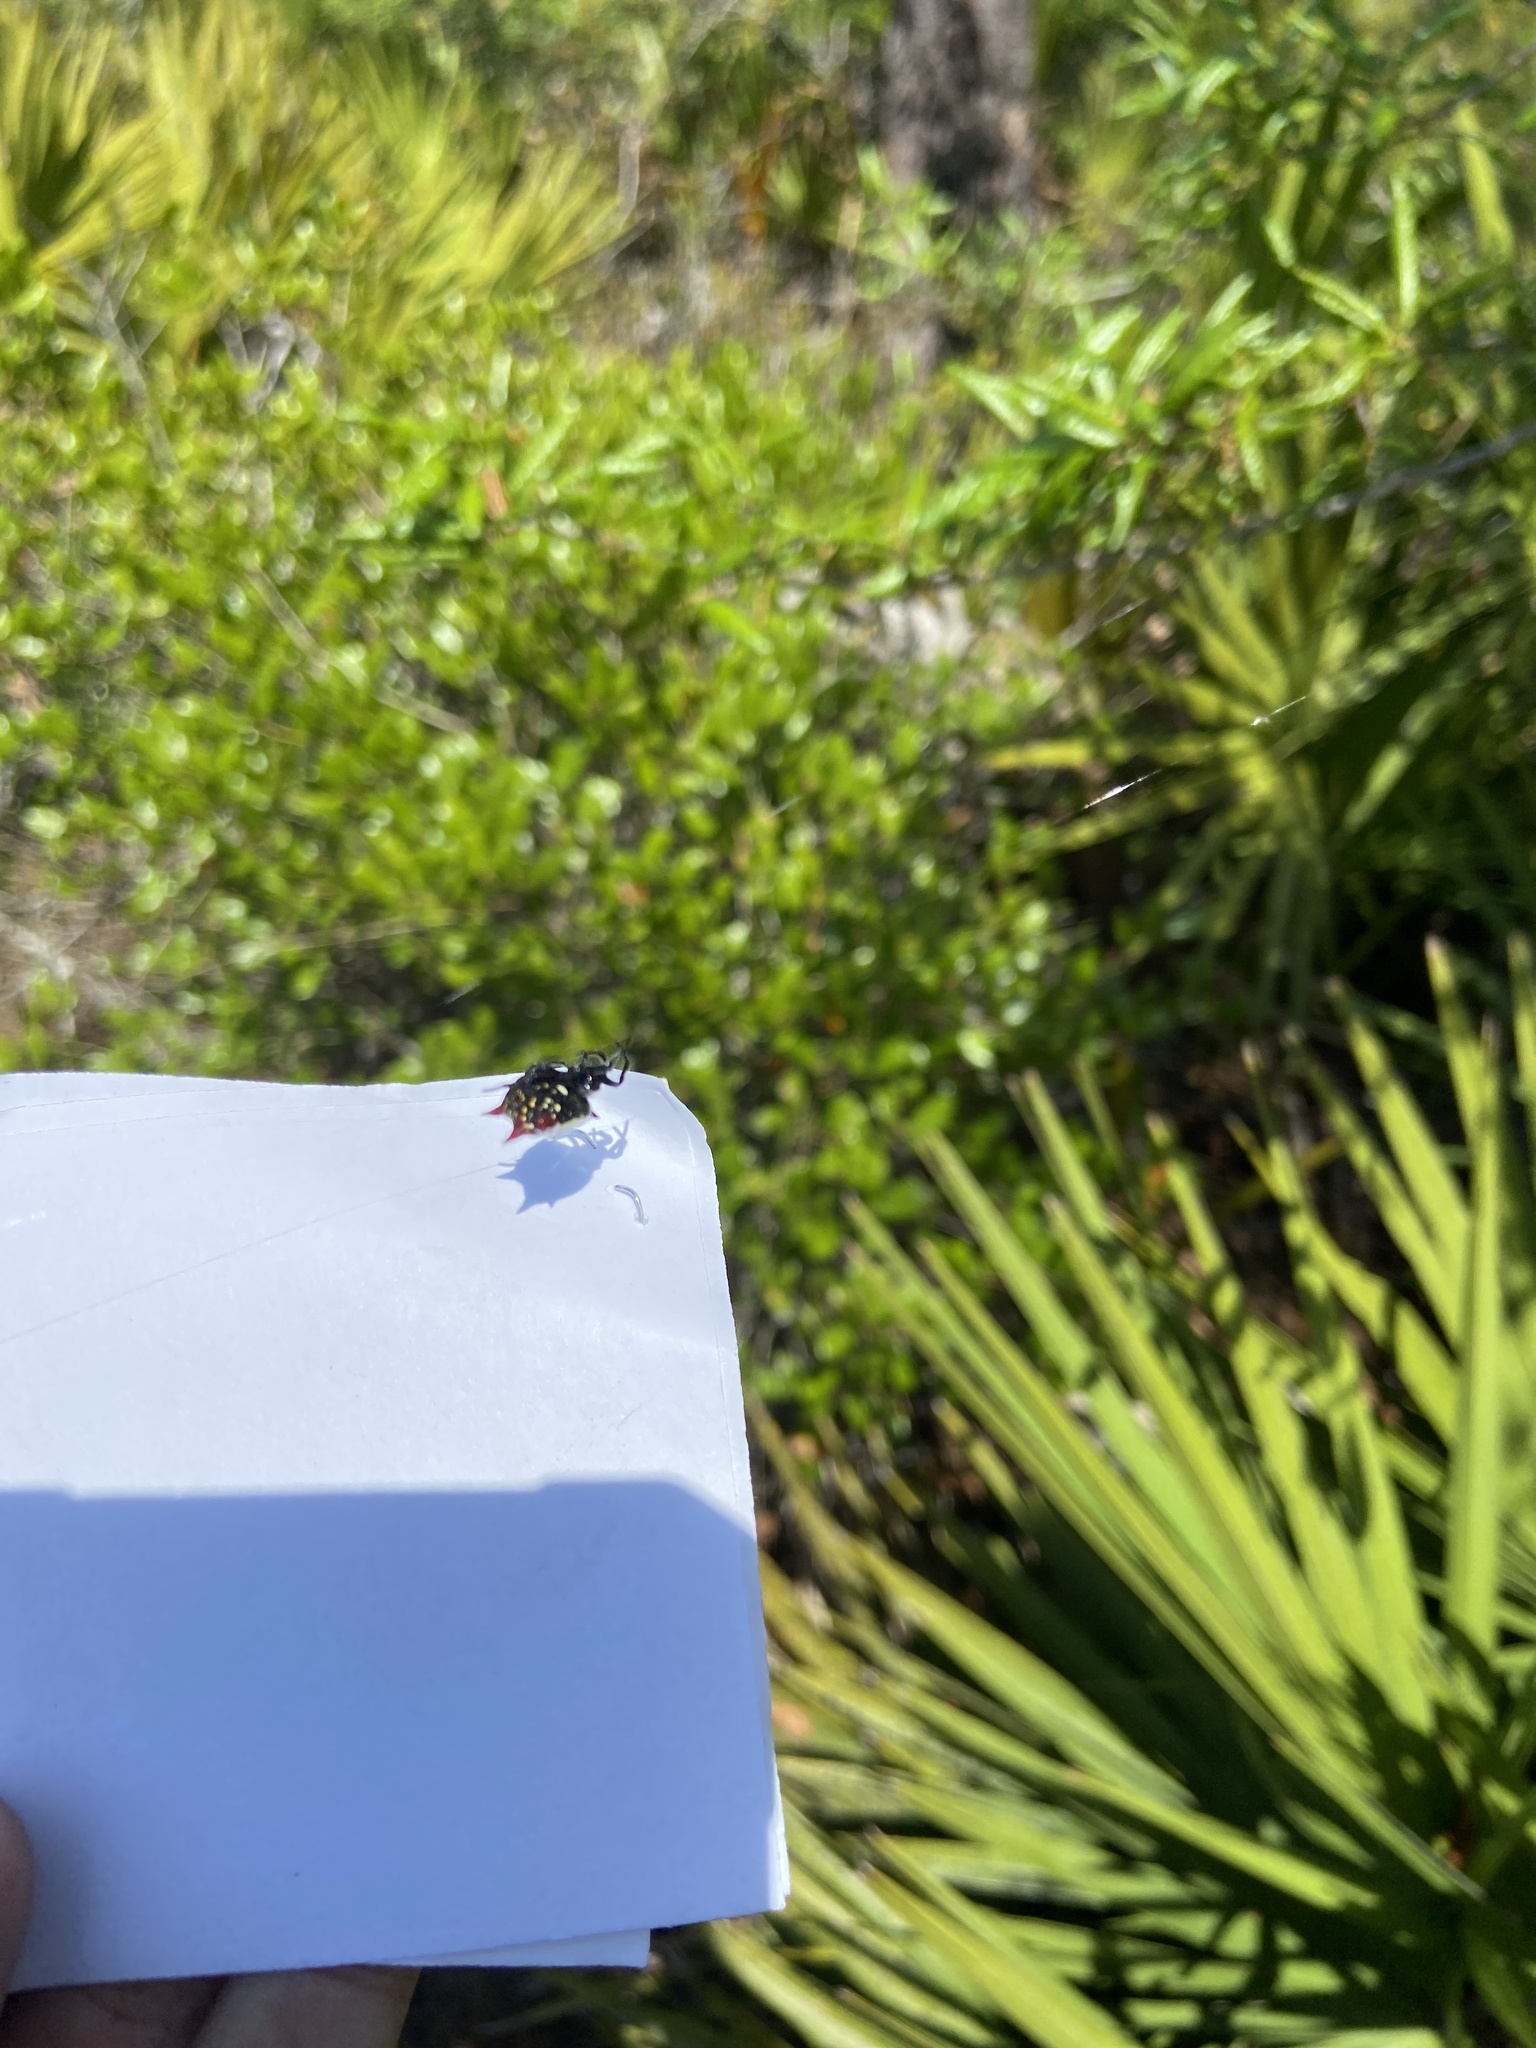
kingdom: Animalia
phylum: Arthropoda
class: Arachnida
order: Araneae
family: Araneidae
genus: Gasteracantha
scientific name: Gasteracantha cancriformis
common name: Orb weavers
